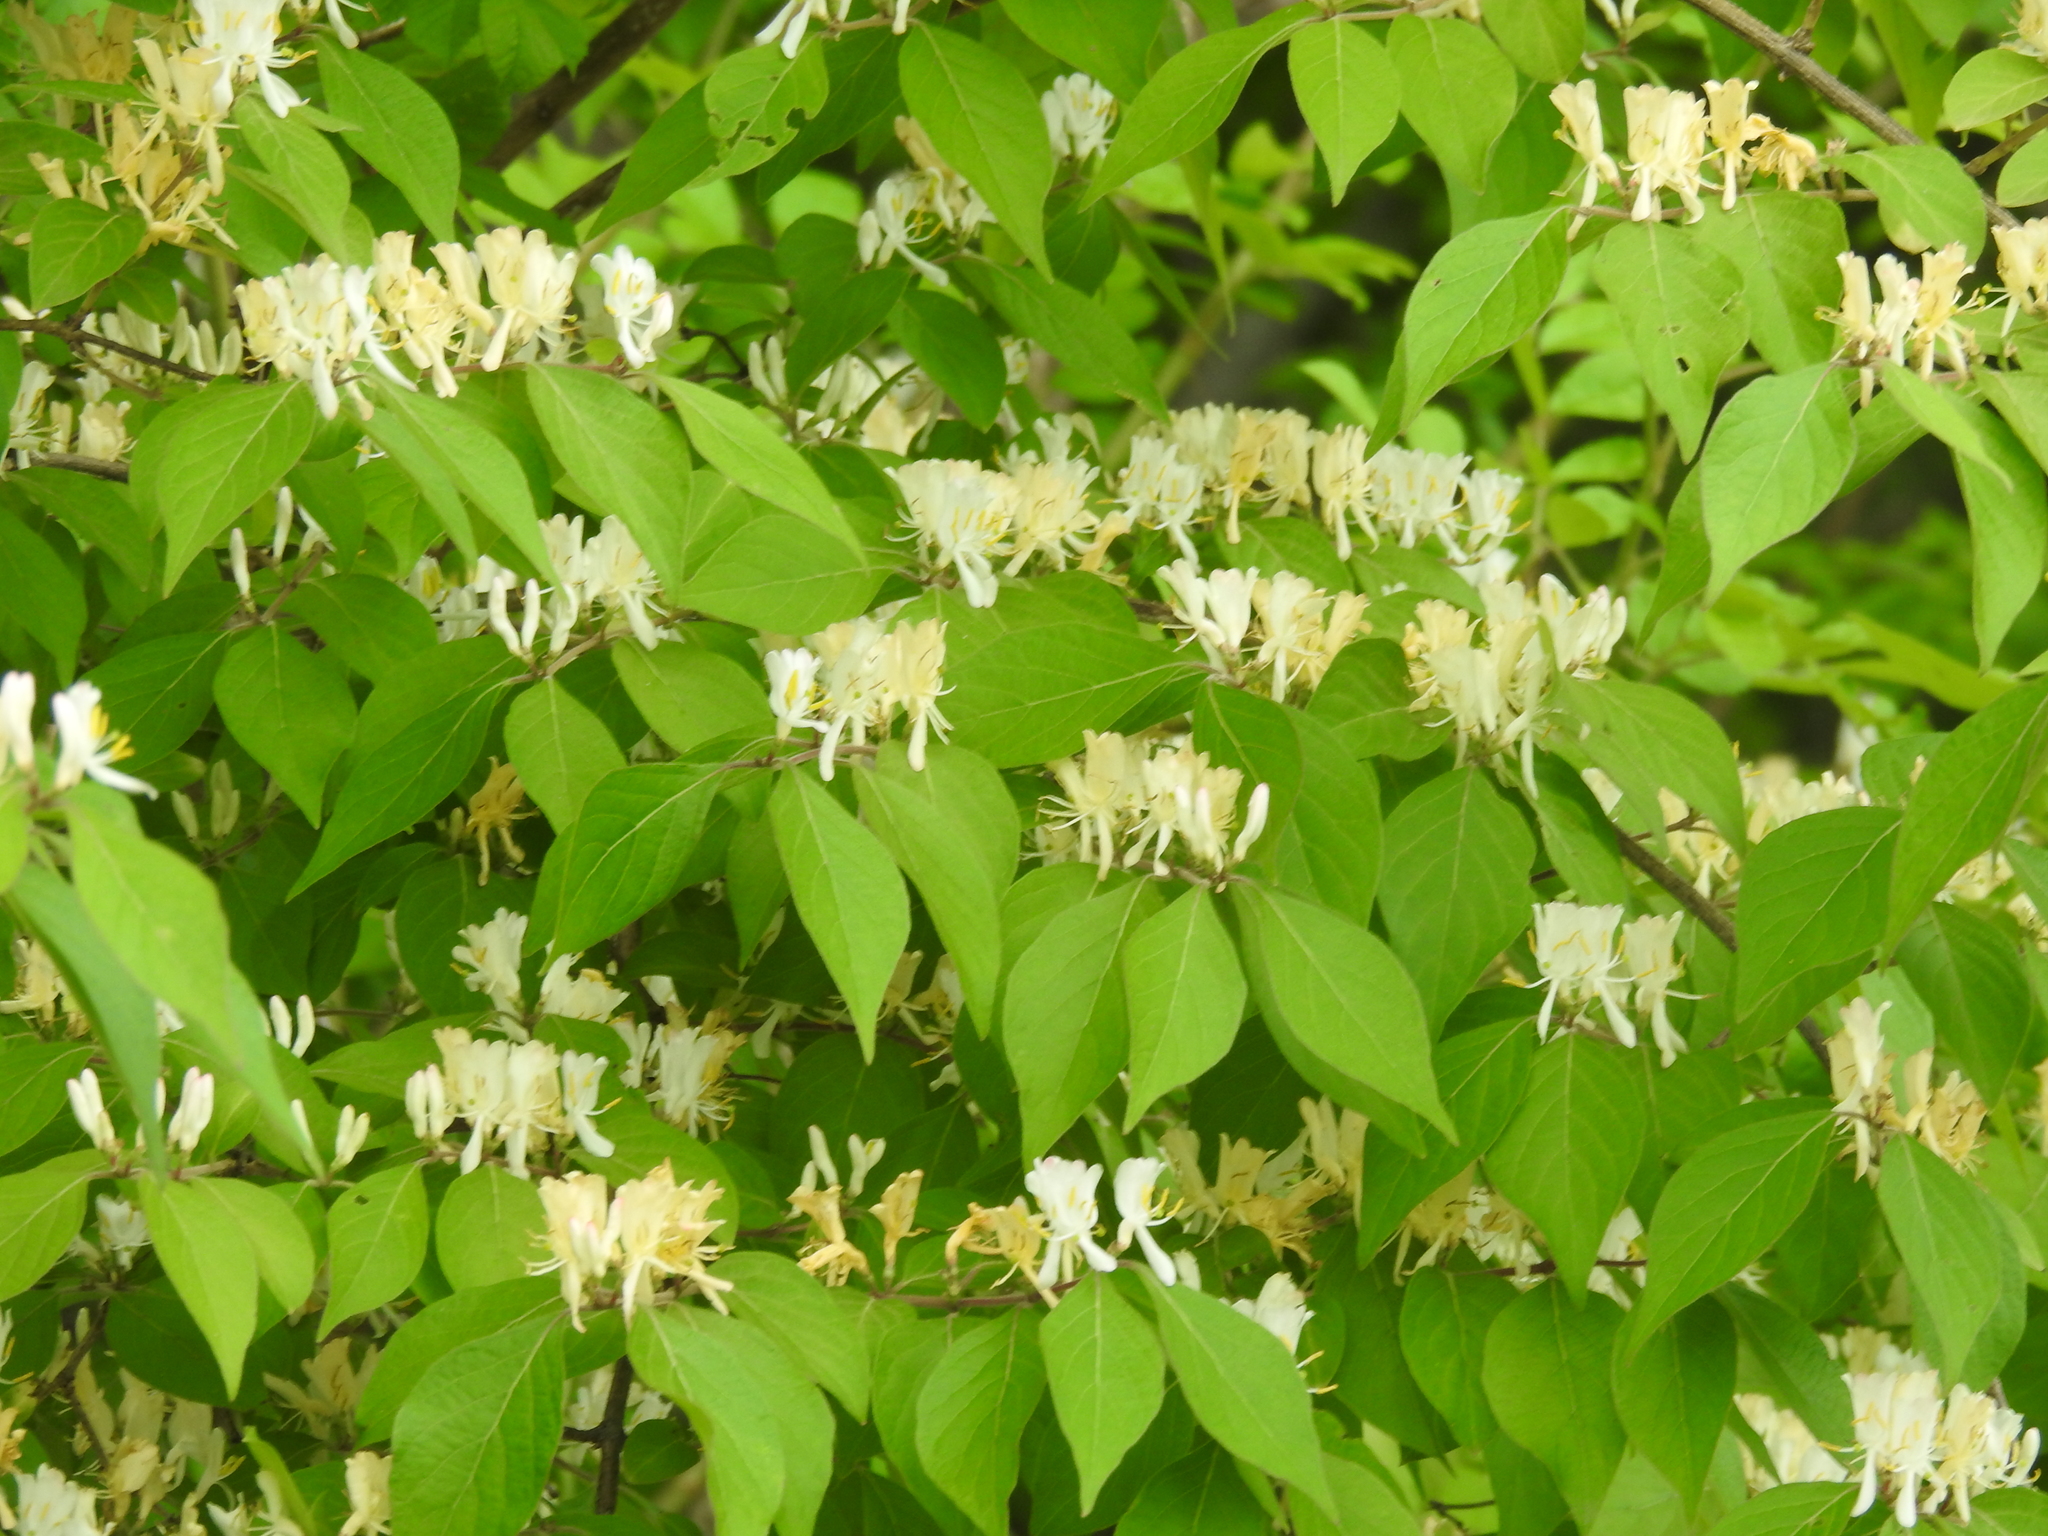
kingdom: Plantae
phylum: Tracheophyta
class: Magnoliopsida
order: Dipsacales
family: Caprifoliaceae
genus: Lonicera
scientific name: Lonicera maackii
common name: Amur honeysuckle
